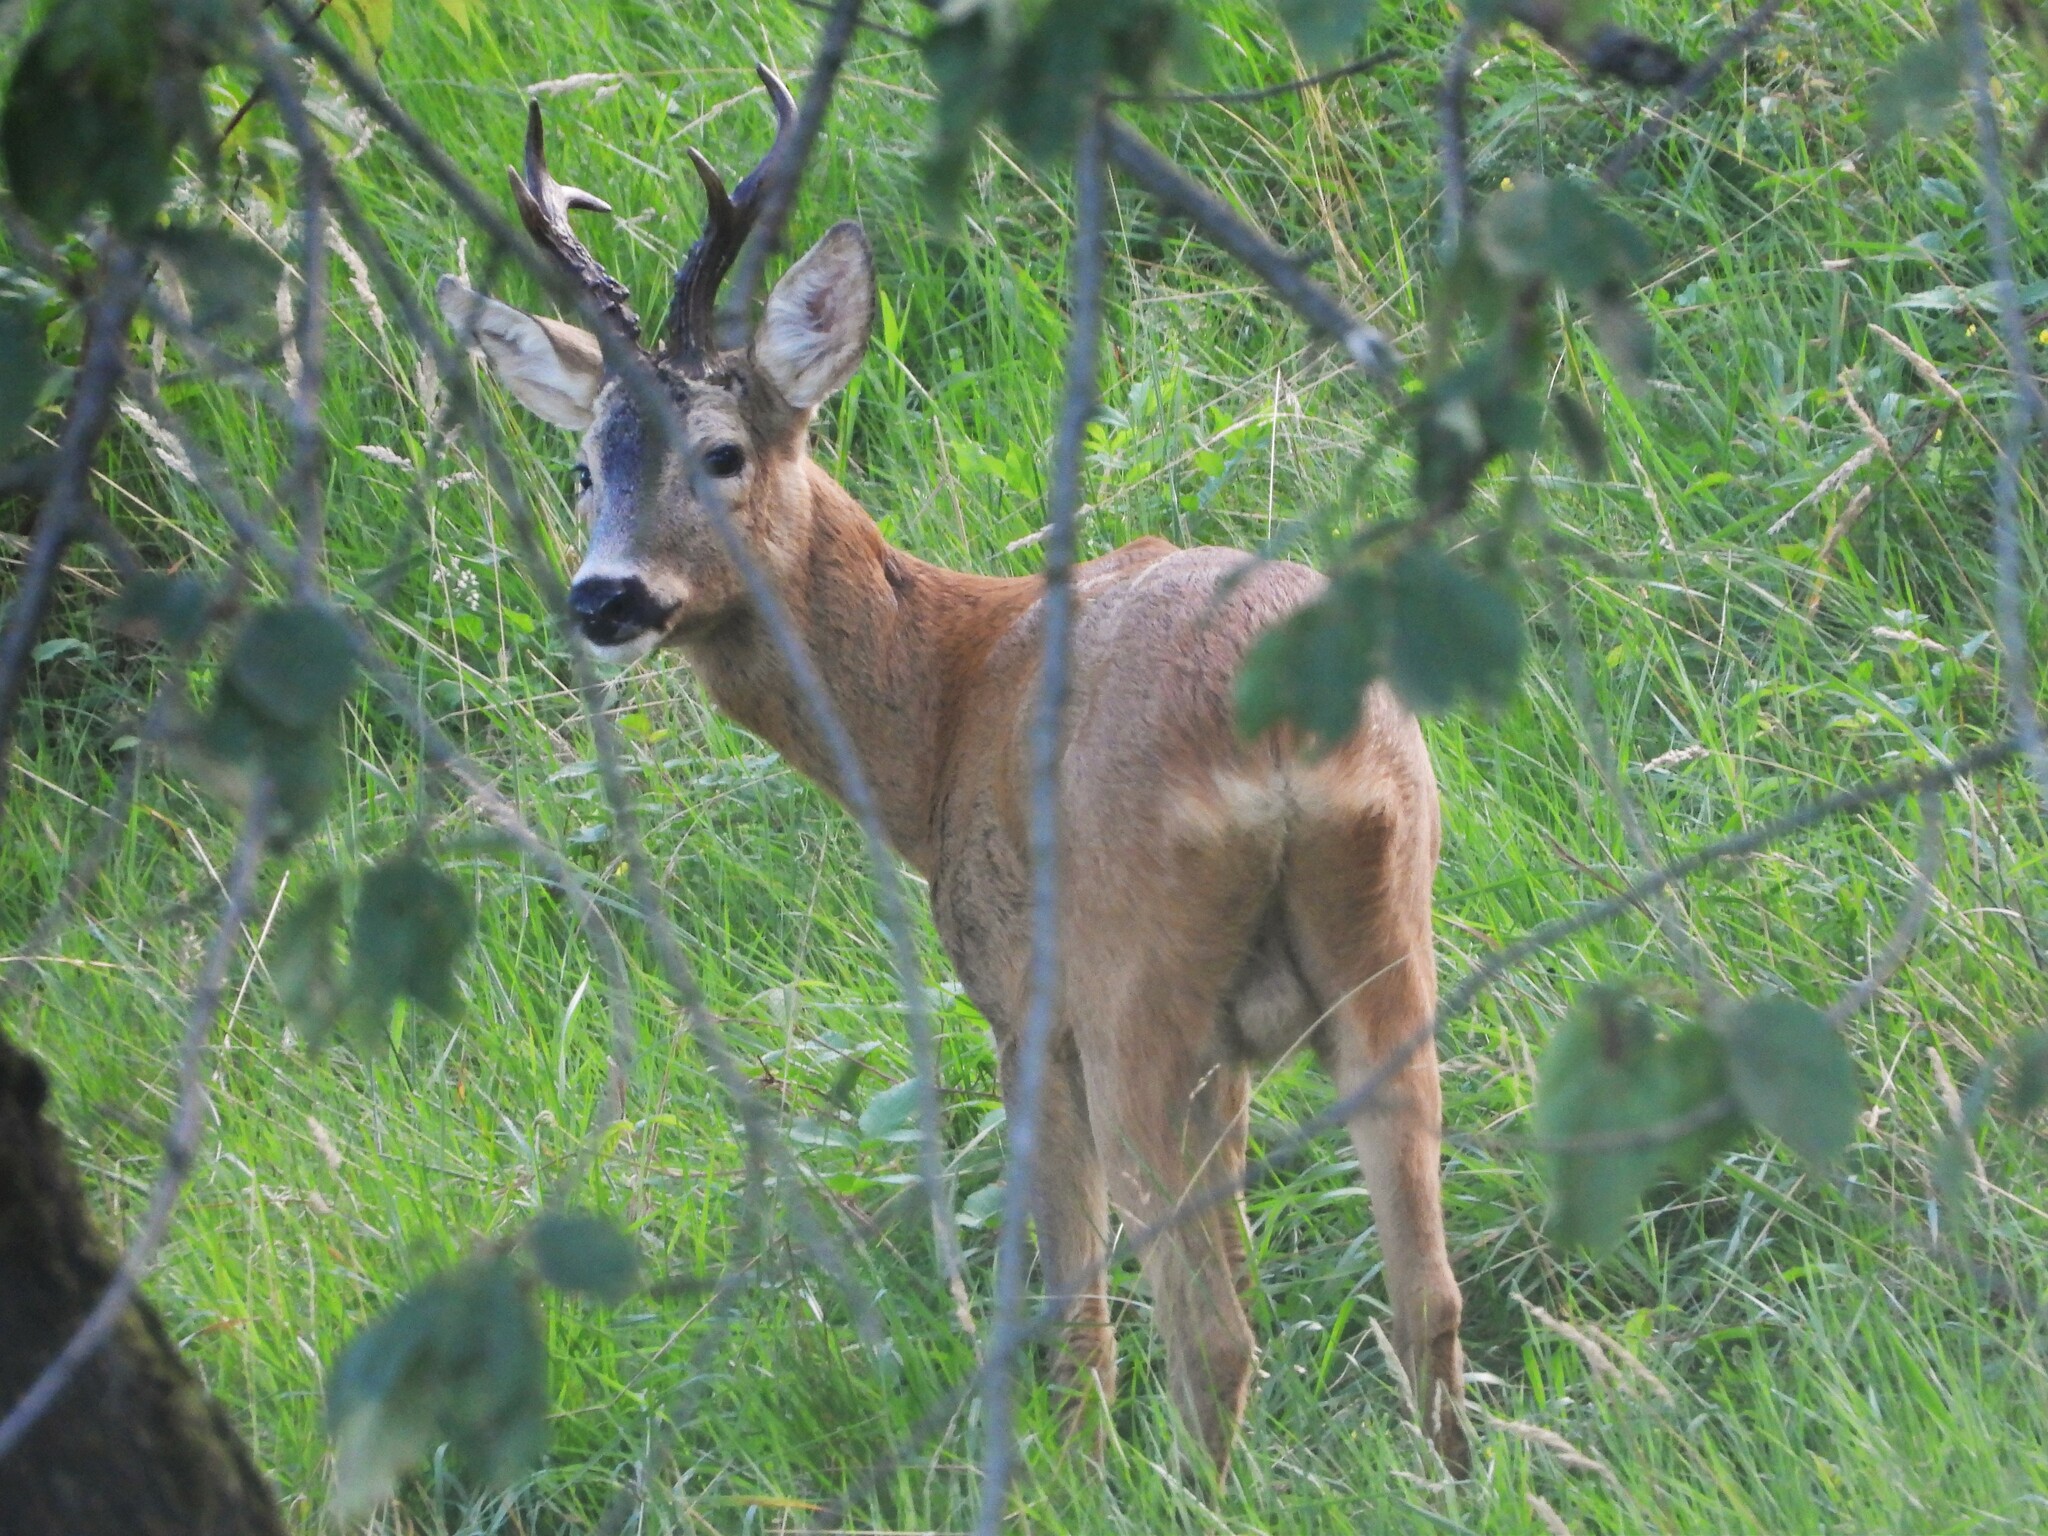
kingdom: Animalia
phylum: Chordata
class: Mammalia
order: Artiodactyla
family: Cervidae
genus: Capreolus
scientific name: Capreolus capreolus
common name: Western roe deer
